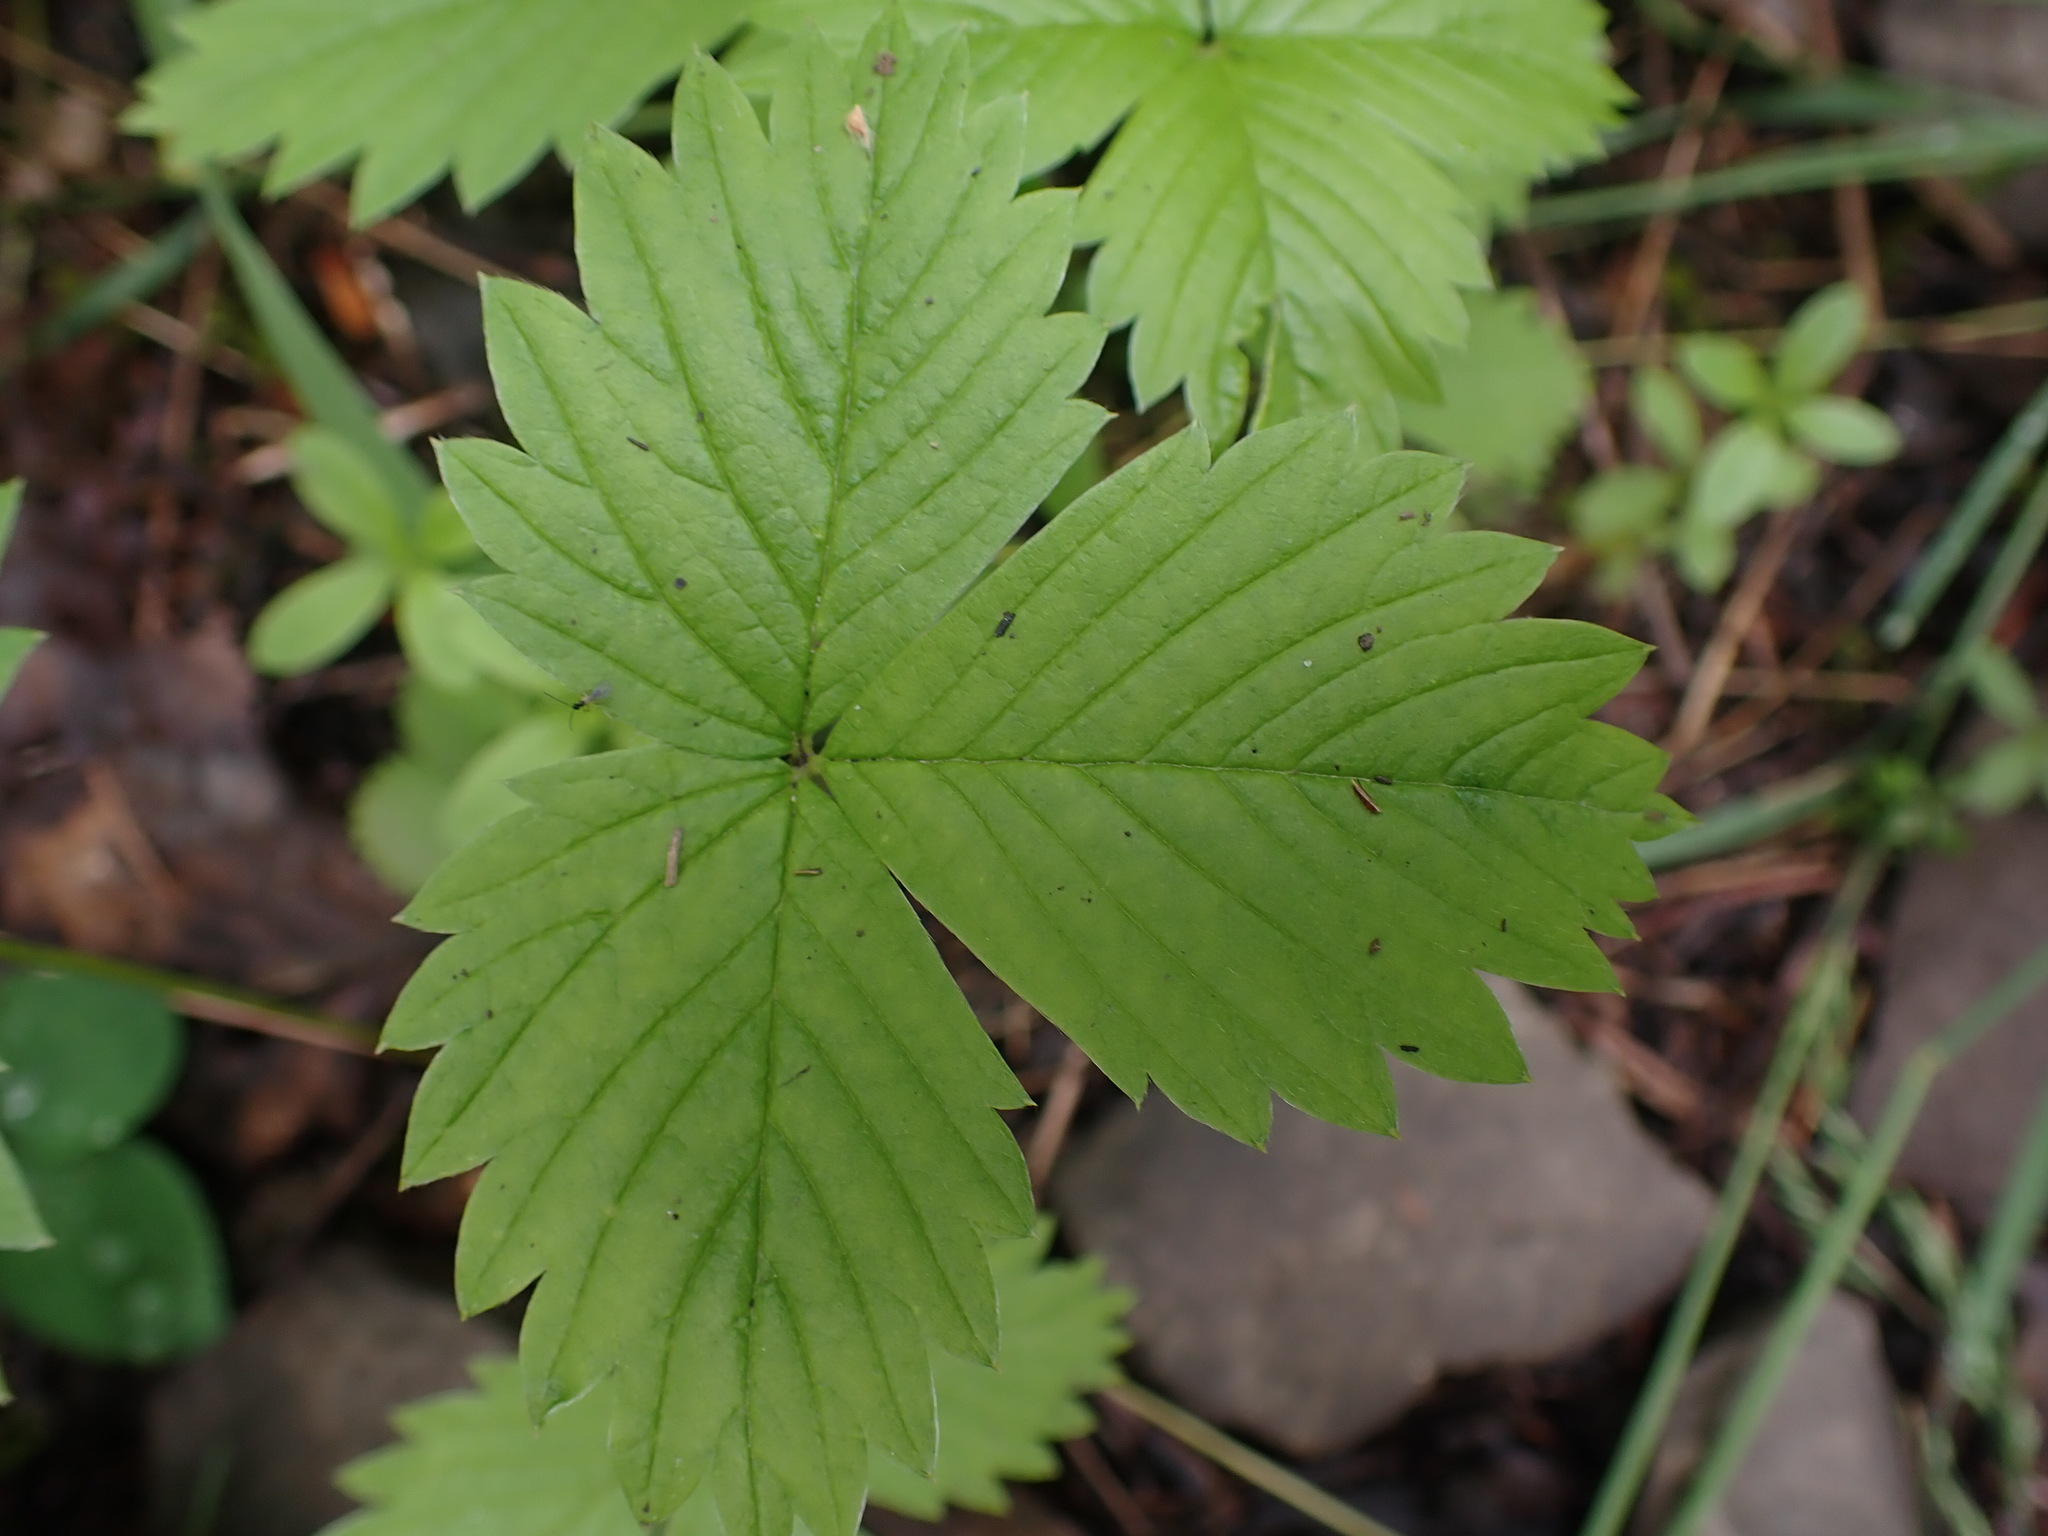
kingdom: Plantae
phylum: Tracheophyta
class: Magnoliopsida
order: Rosales
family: Rosaceae
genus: Fragaria
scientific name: Fragaria vesca
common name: Wild strawberry
